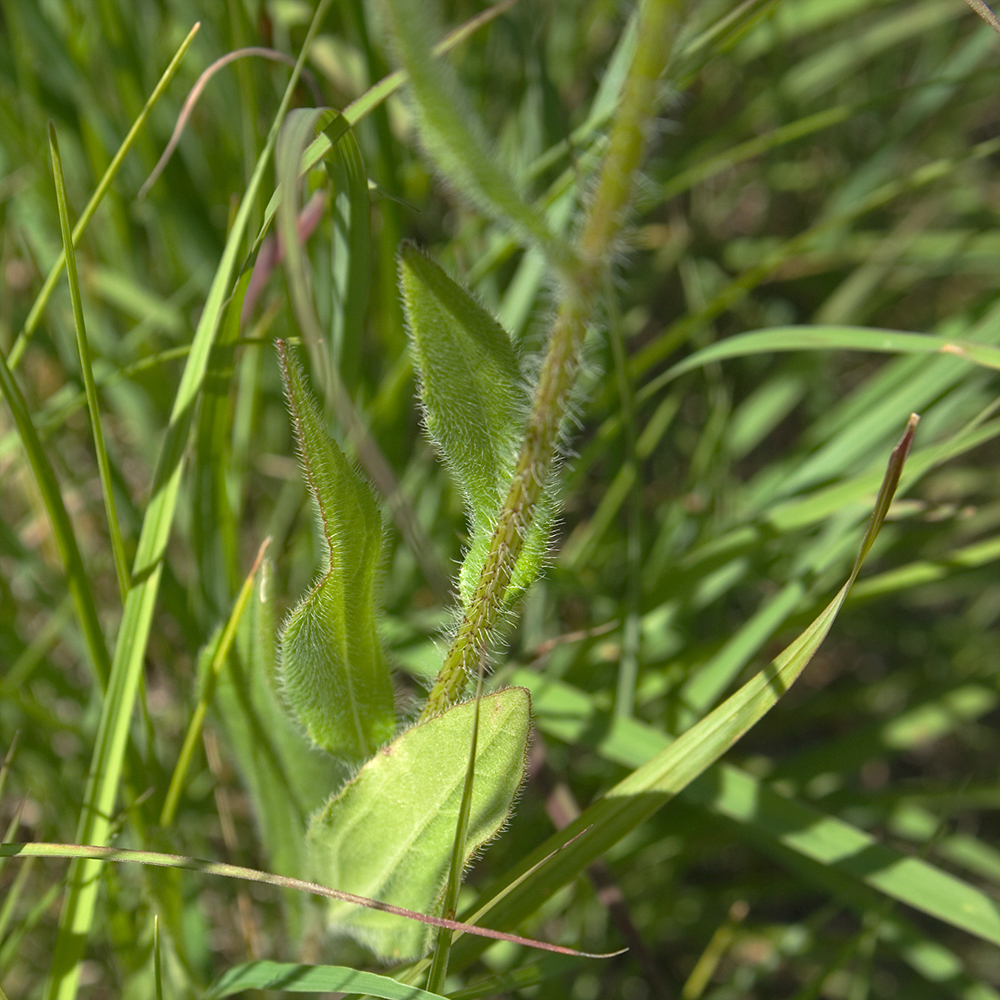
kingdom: Plantae
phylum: Tracheophyta
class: Magnoliopsida
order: Asterales
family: Asteraceae
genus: Rudbeckia
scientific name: Rudbeckia hirta
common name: Black-eyed-susan
